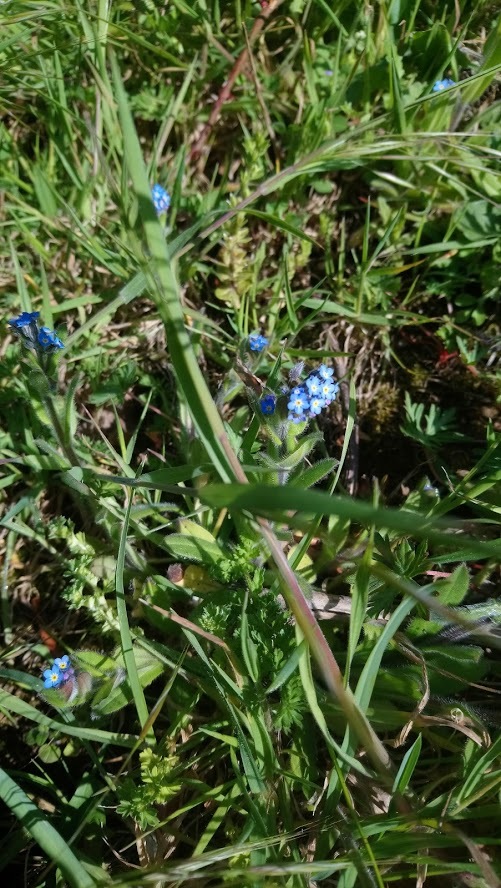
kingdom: Plantae
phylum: Tracheophyta
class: Magnoliopsida
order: Boraginales
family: Boraginaceae
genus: Myosotis
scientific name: Myosotis arvensis
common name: Field forget-me-not
